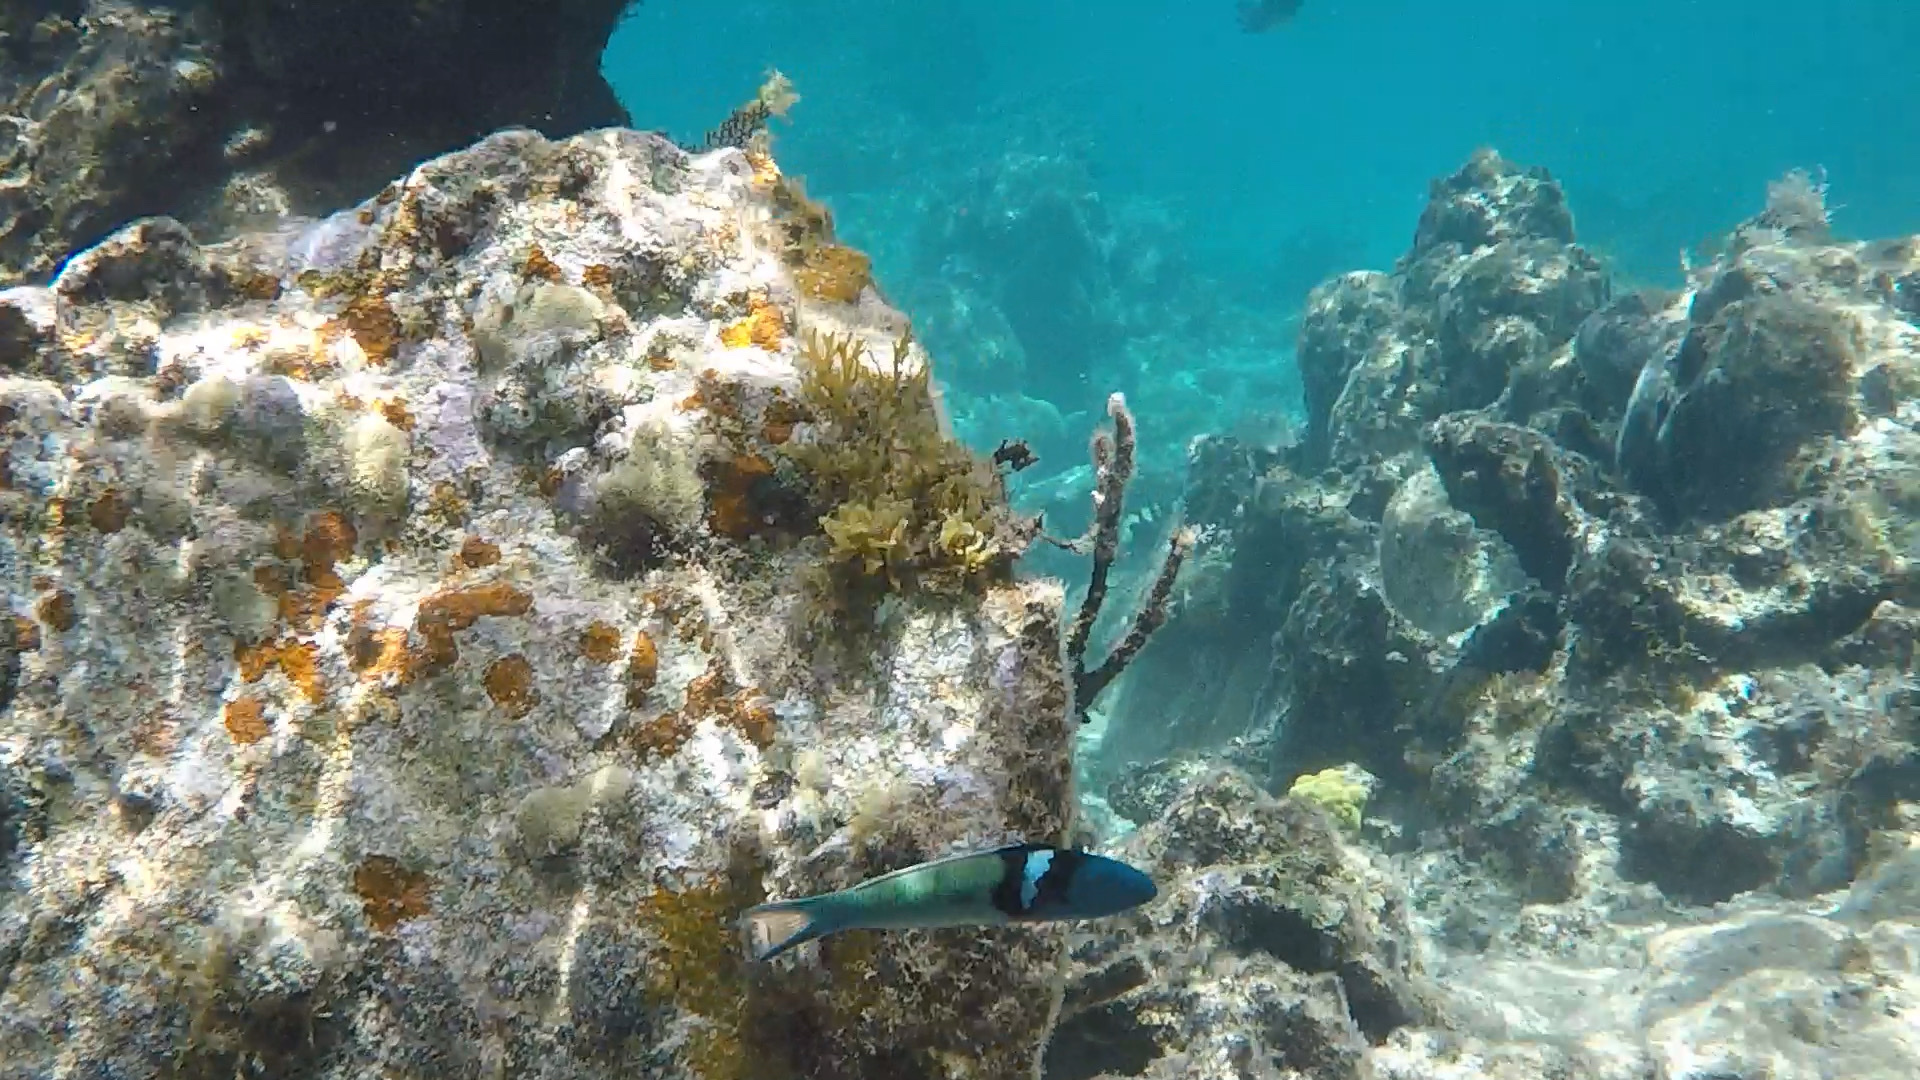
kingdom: Animalia
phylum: Chordata
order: Perciformes
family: Labridae
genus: Thalassoma
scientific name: Thalassoma bifasciatum
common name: Bluehead wrasse
